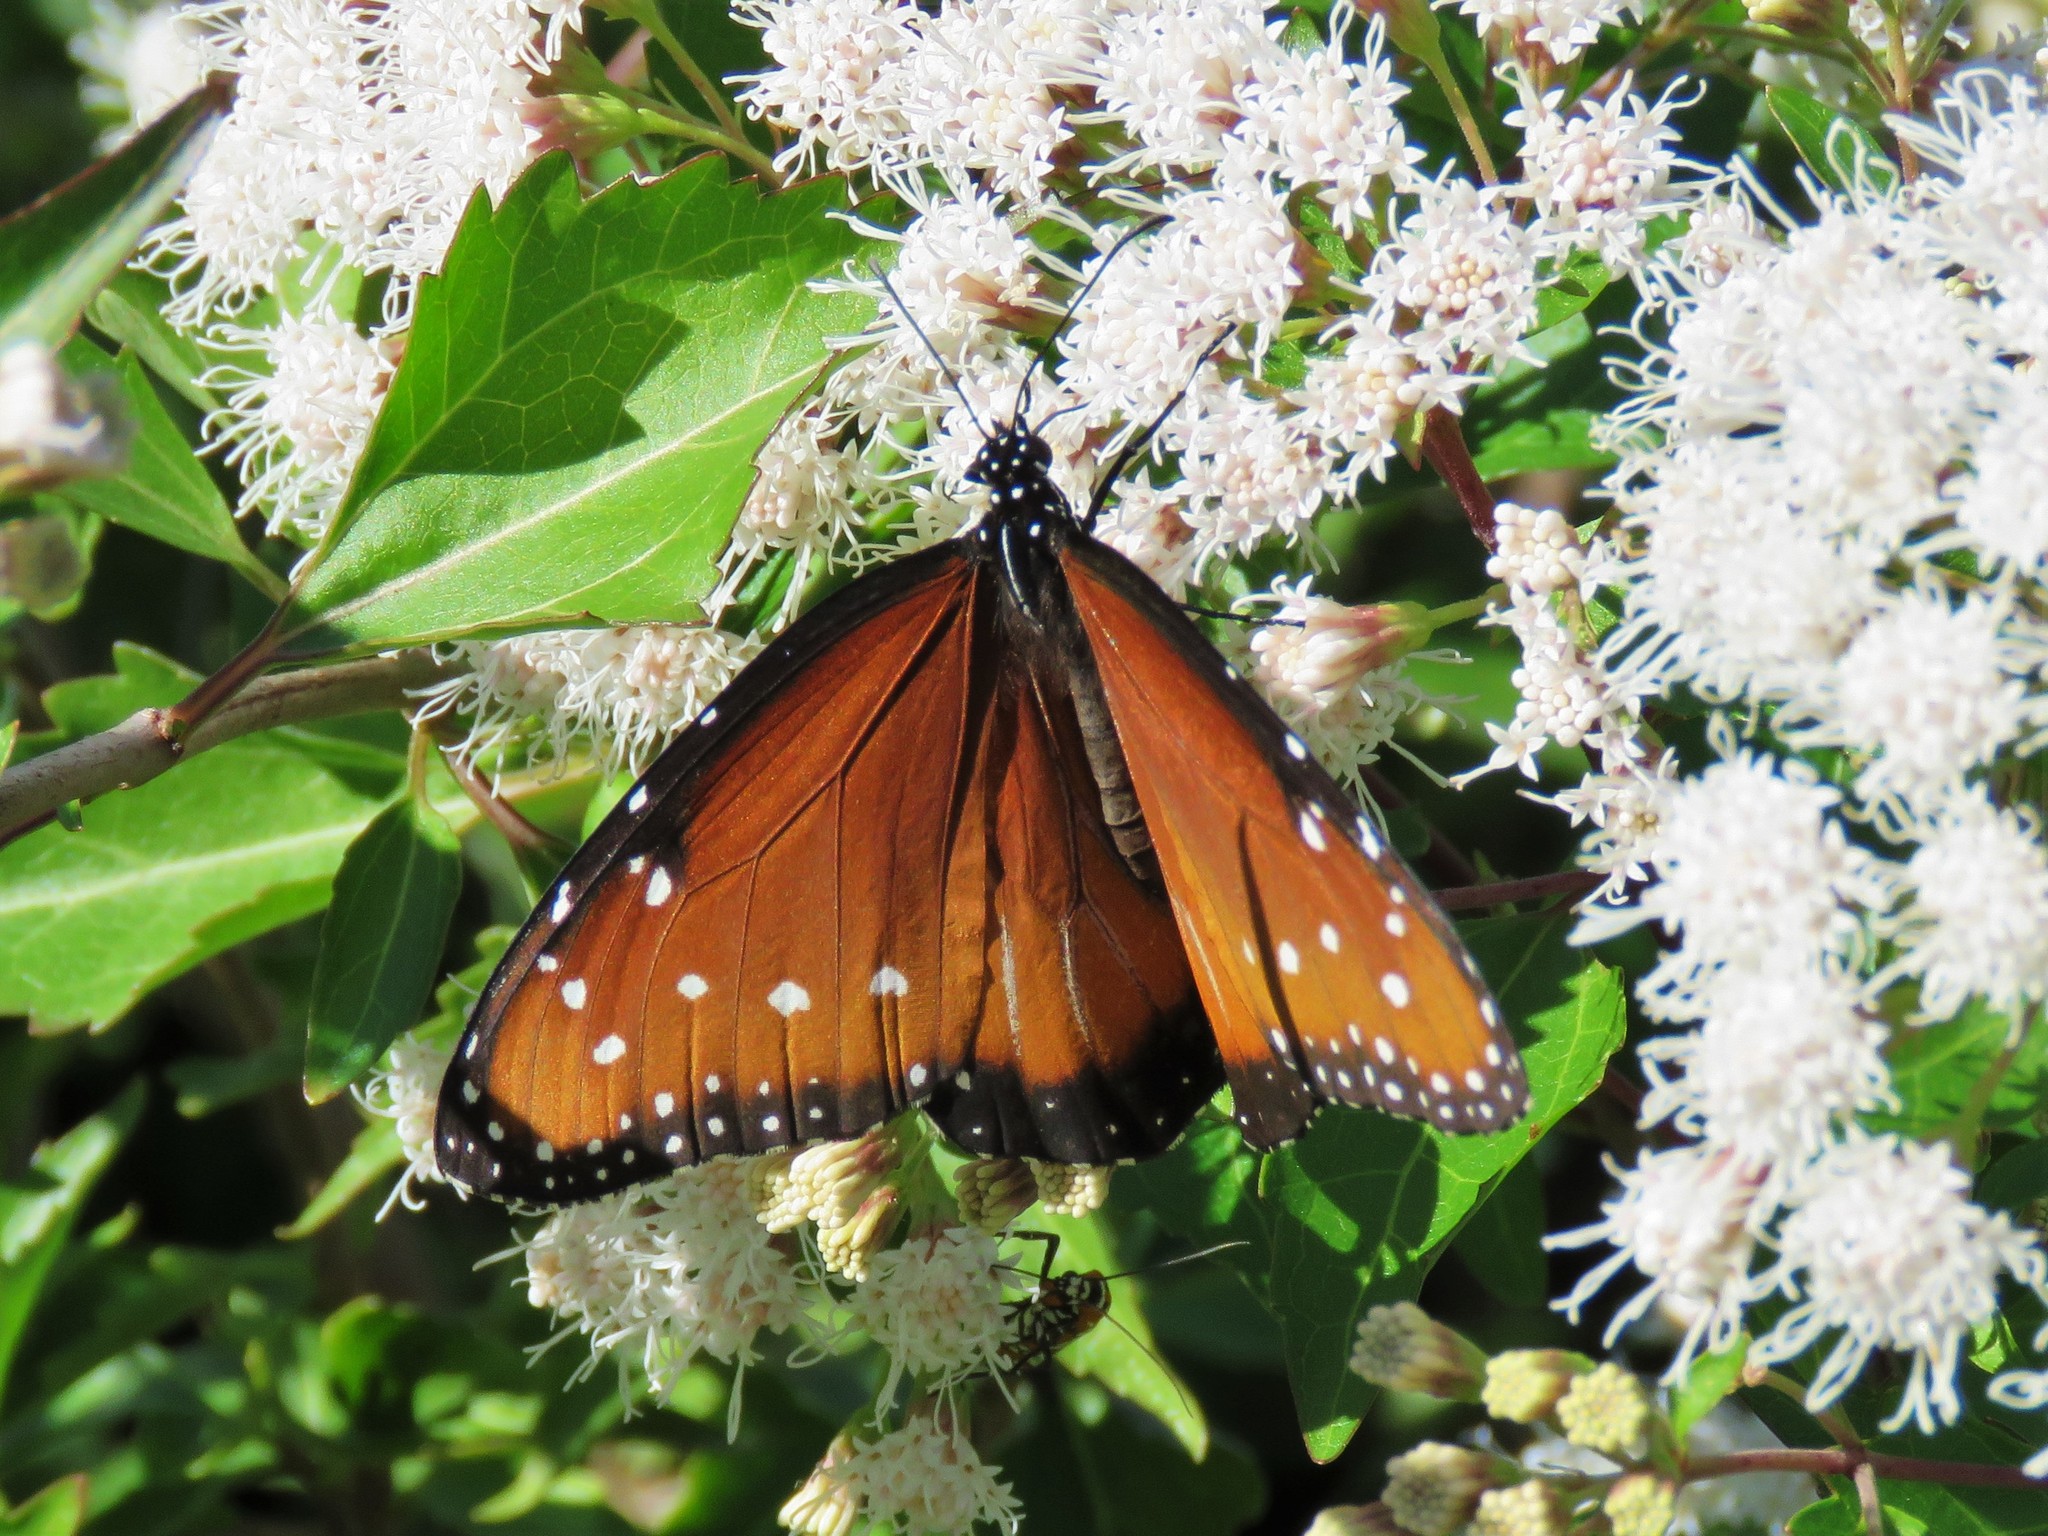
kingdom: Animalia
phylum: Arthropoda
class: Insecta
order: Lepidoptera
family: Nymphalidae
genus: Danaus
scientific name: Danaus gilippus
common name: Queen
